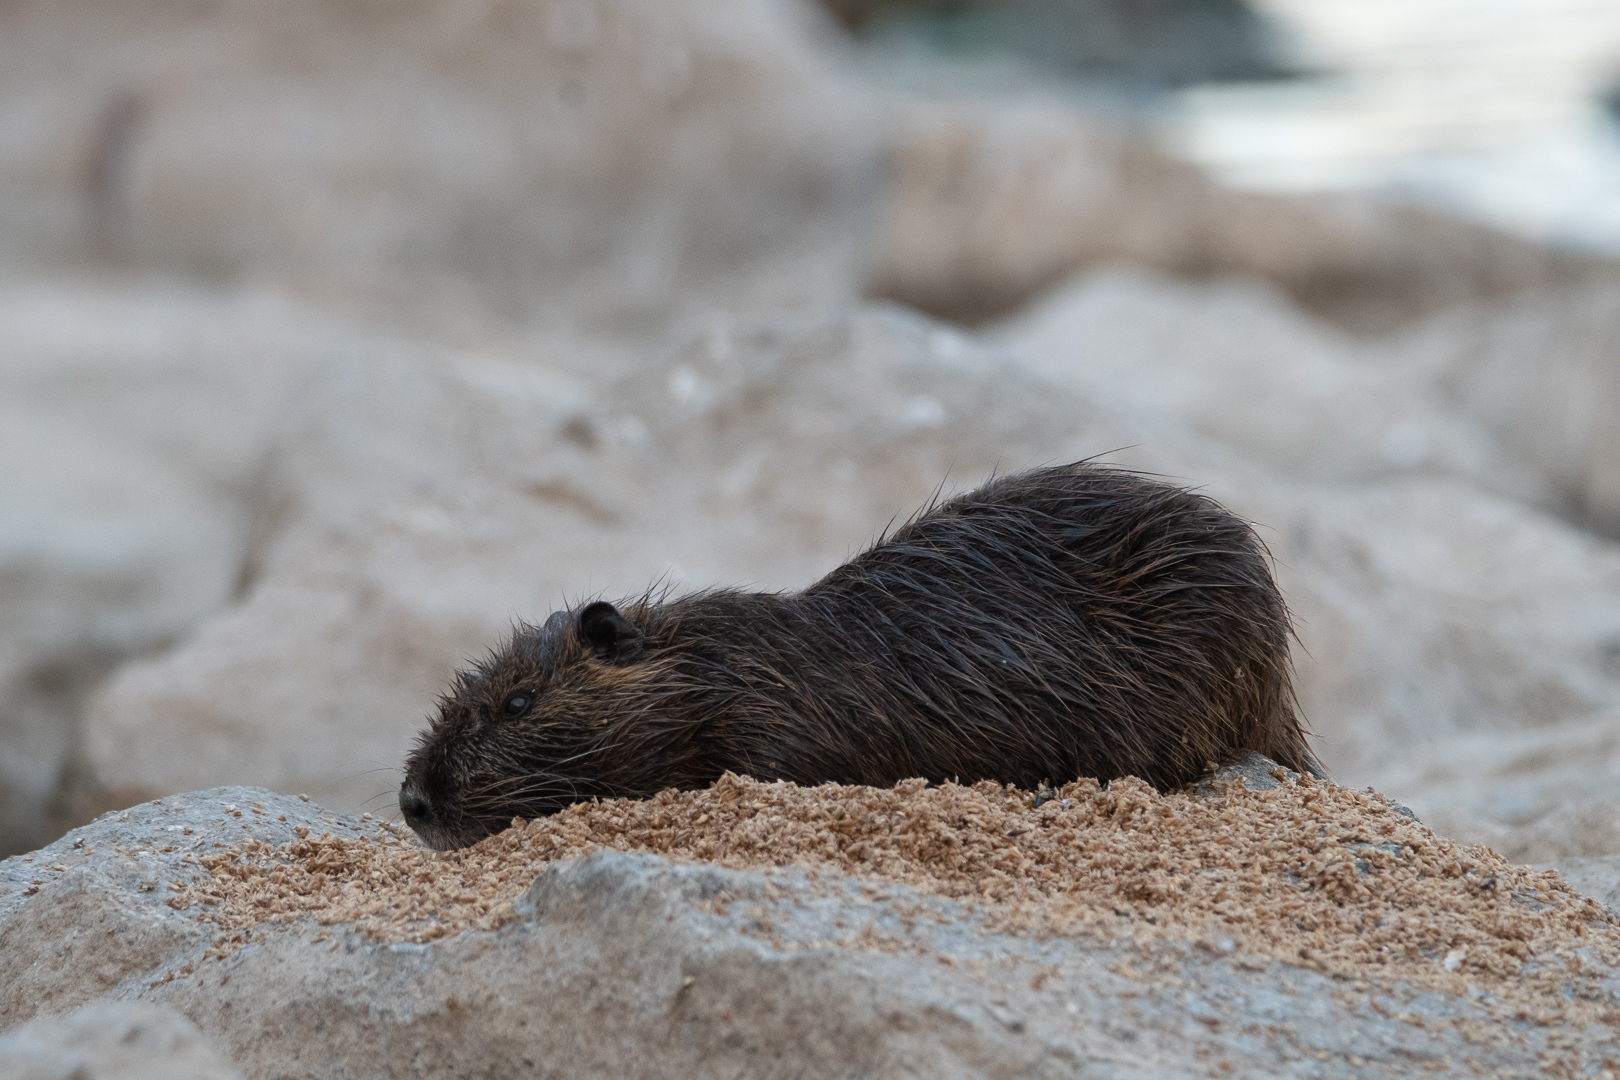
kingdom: Animalia
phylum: Chordata
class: Mammalia
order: Rodentia
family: Myocastoridae
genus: Myocastor
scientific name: Myocastor coypus
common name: Coypu
